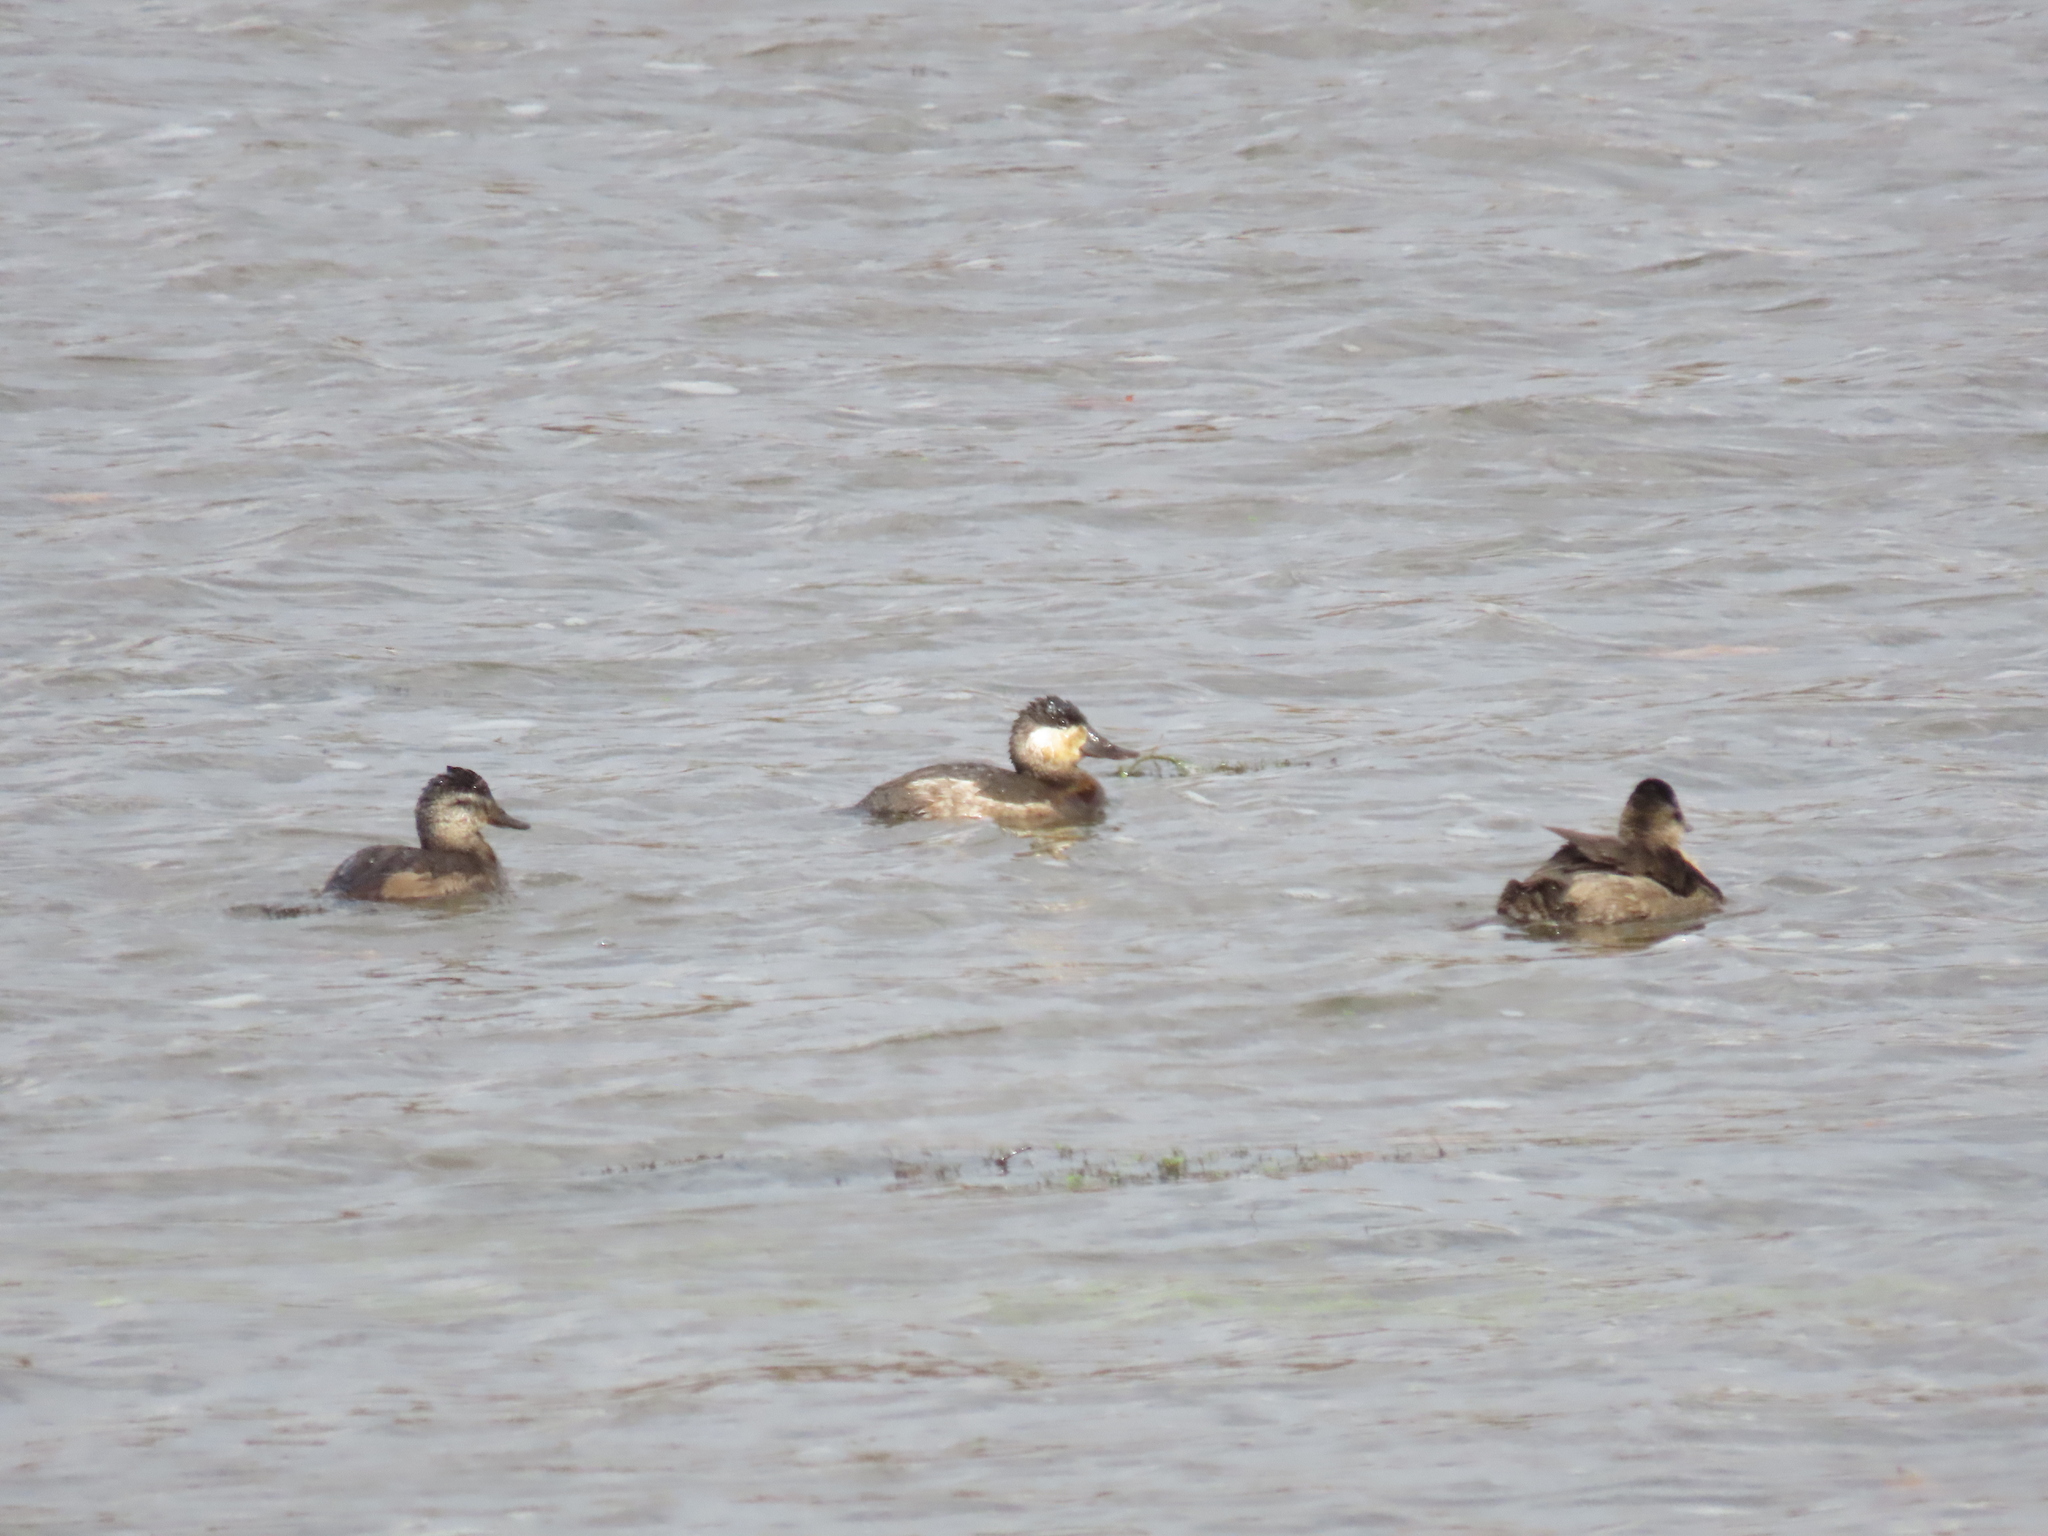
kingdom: Animalia
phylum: Chordata
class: Aves
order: Anseriformes
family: Anatidae
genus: Oxyura
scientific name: Oxyura jamaicensis
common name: Ruddy duck
